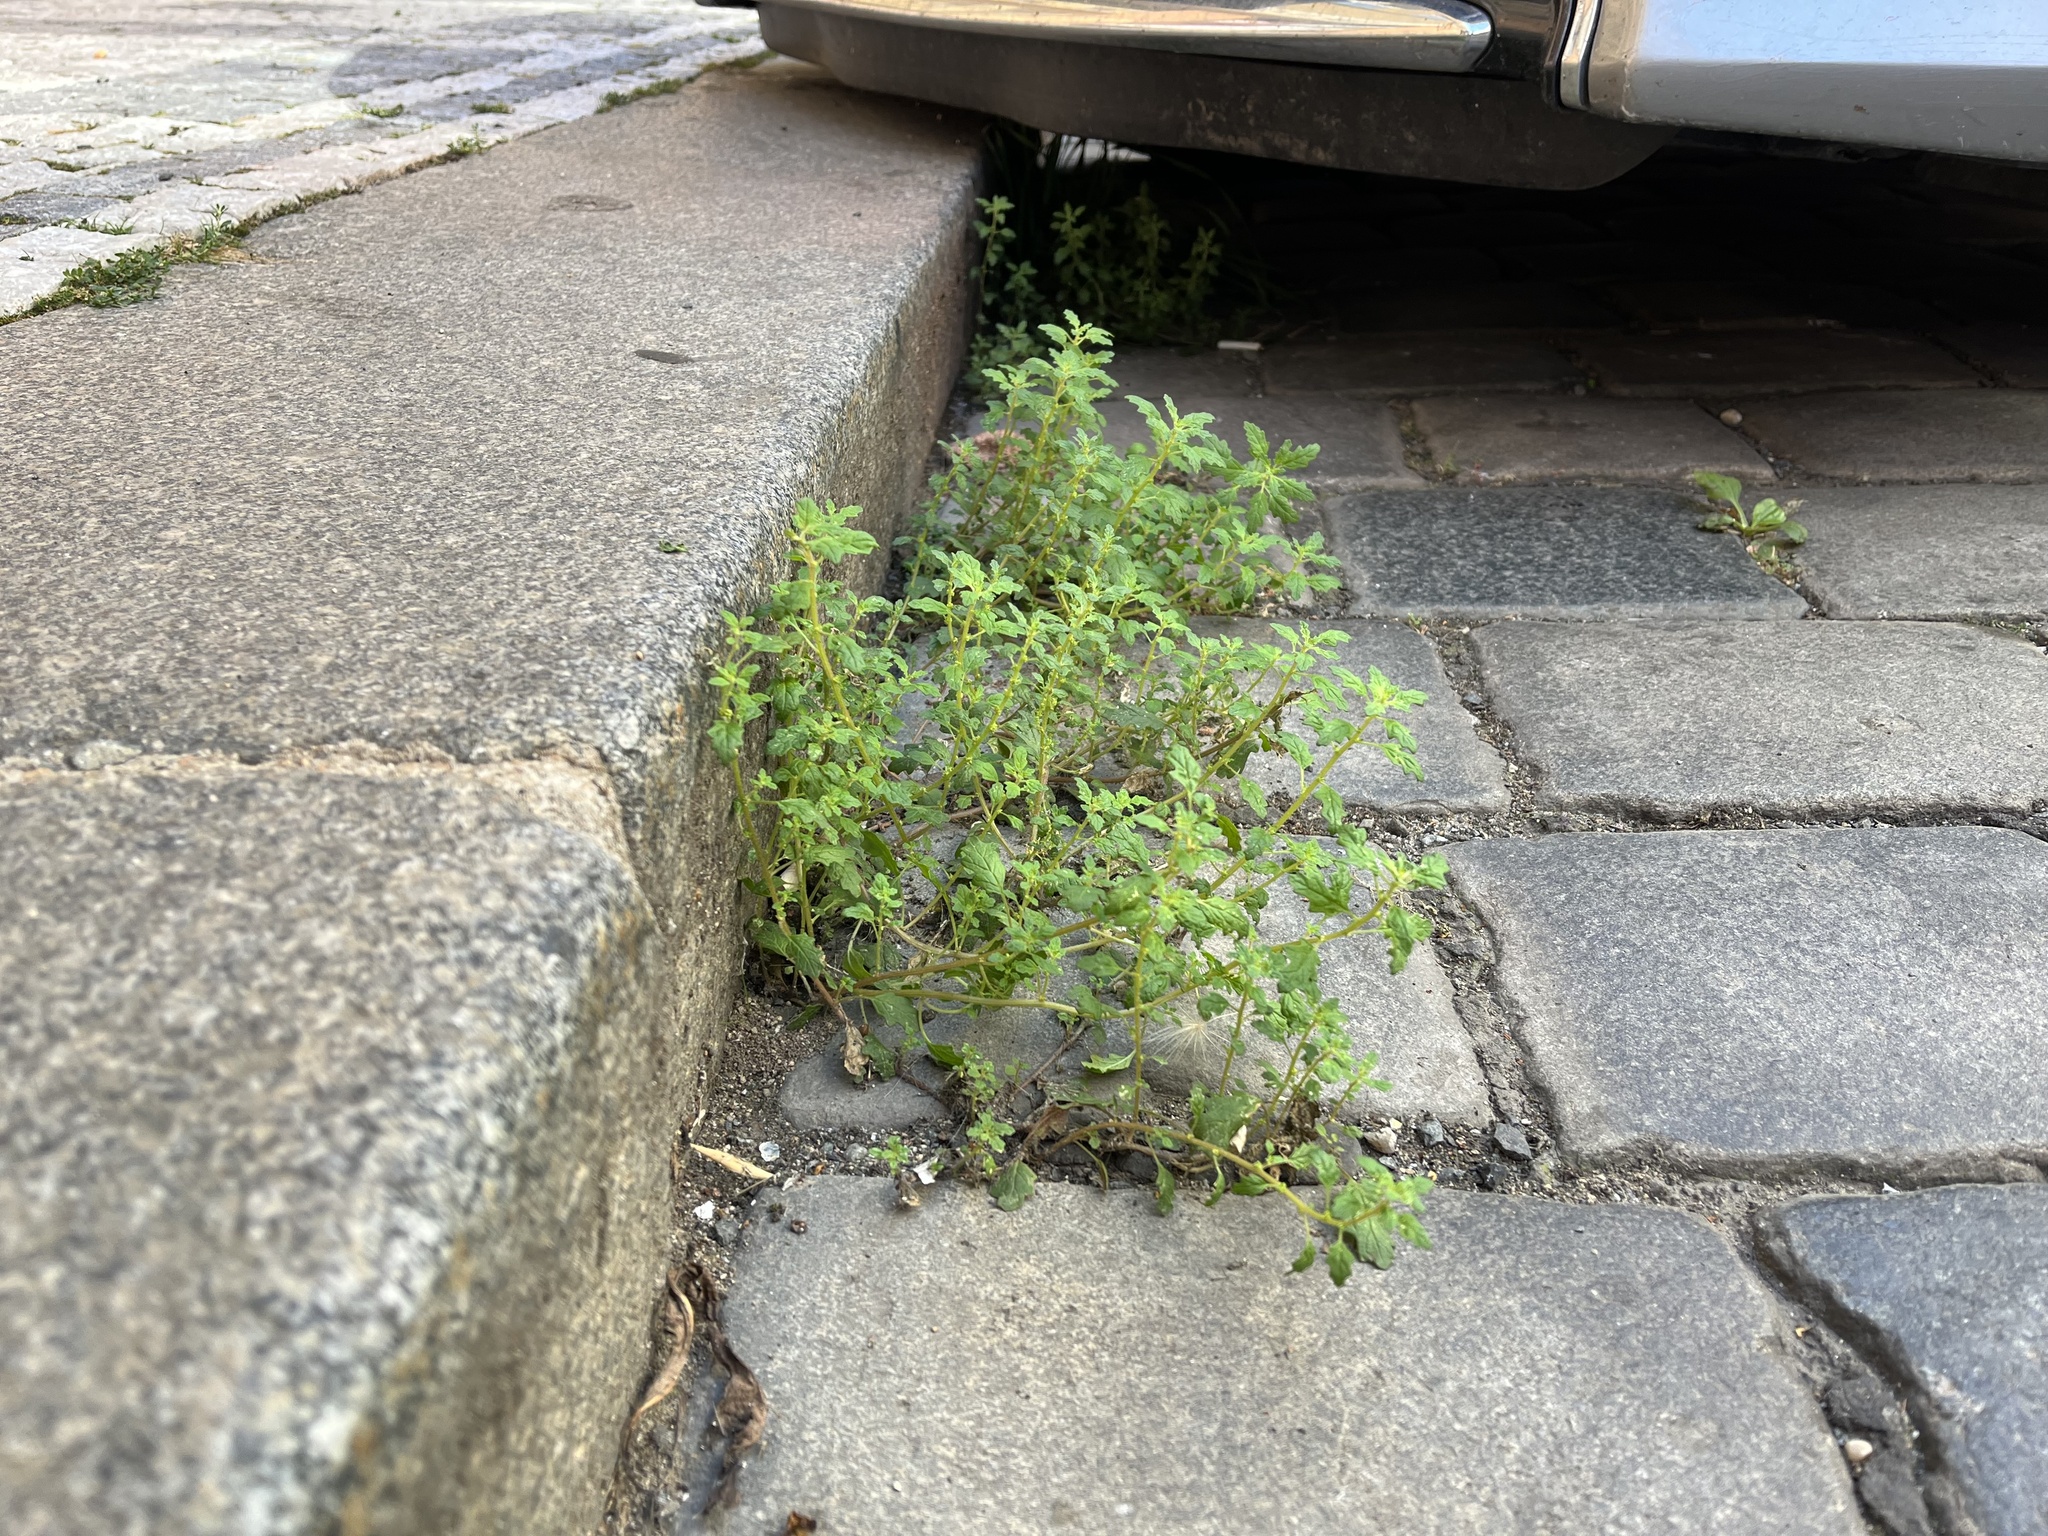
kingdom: Plantae
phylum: Tracheophyta
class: Magnoliopsida
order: Caryophyllales
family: Amaranthaceae
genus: Dysphania
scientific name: Dysphania pumilio
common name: Clammy goosefoot
